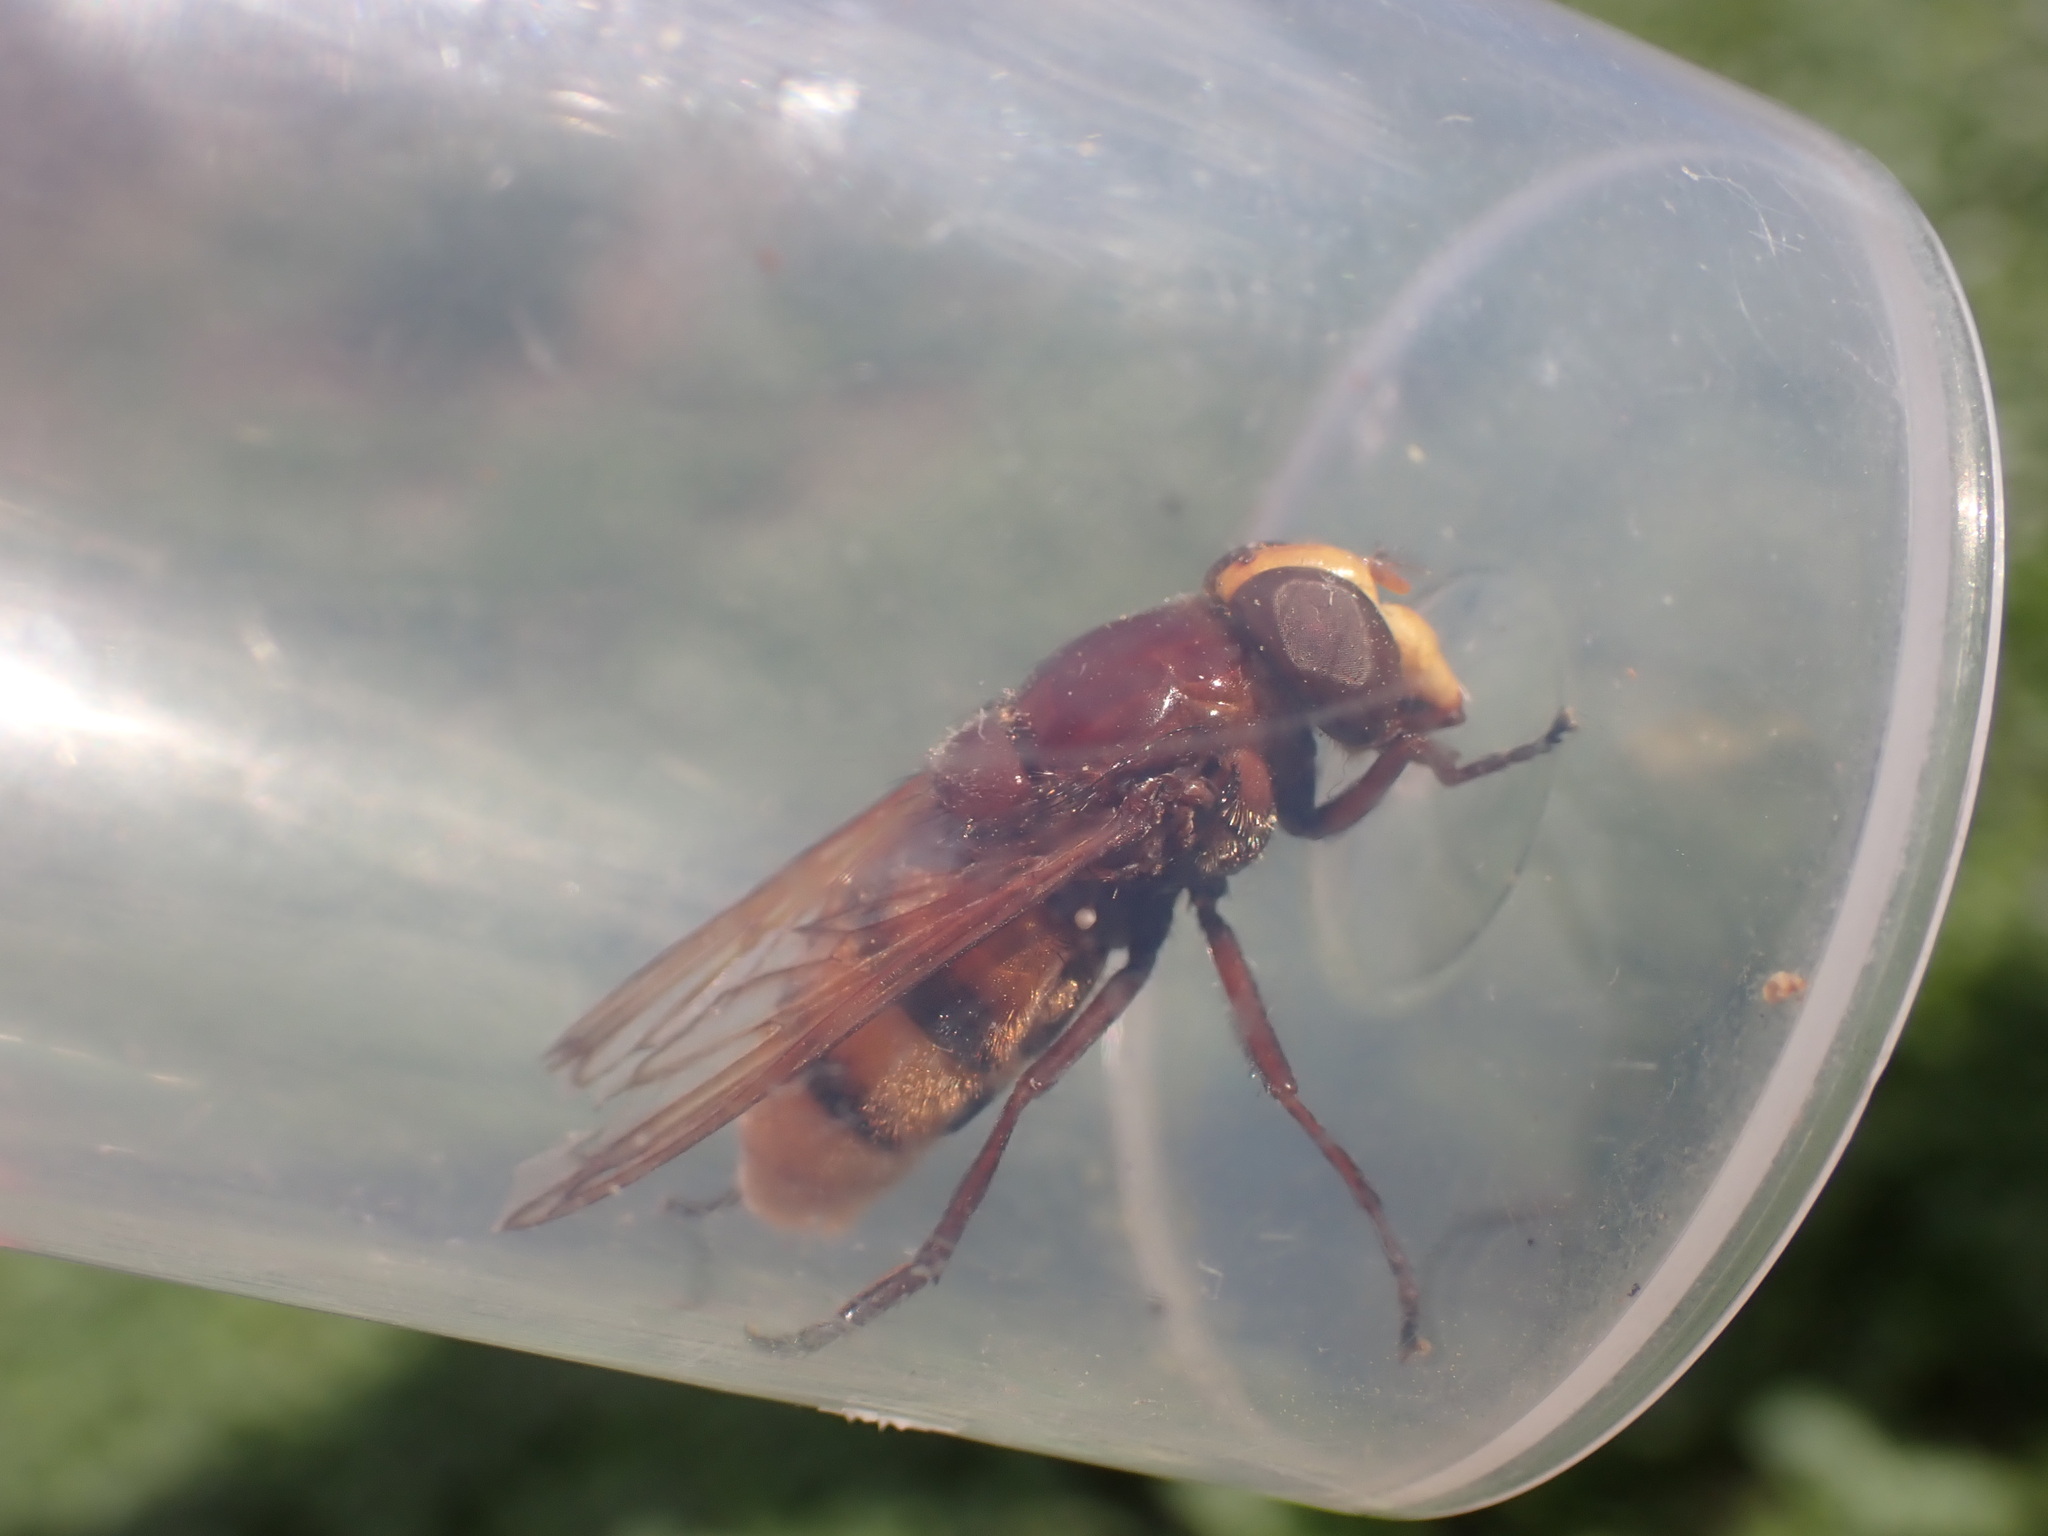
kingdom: Animalia
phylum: Arthropoda
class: Insecta
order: Diptera
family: Syrphidae
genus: Volucella
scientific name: Volucella zonaria
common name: Hornet hoverfly
